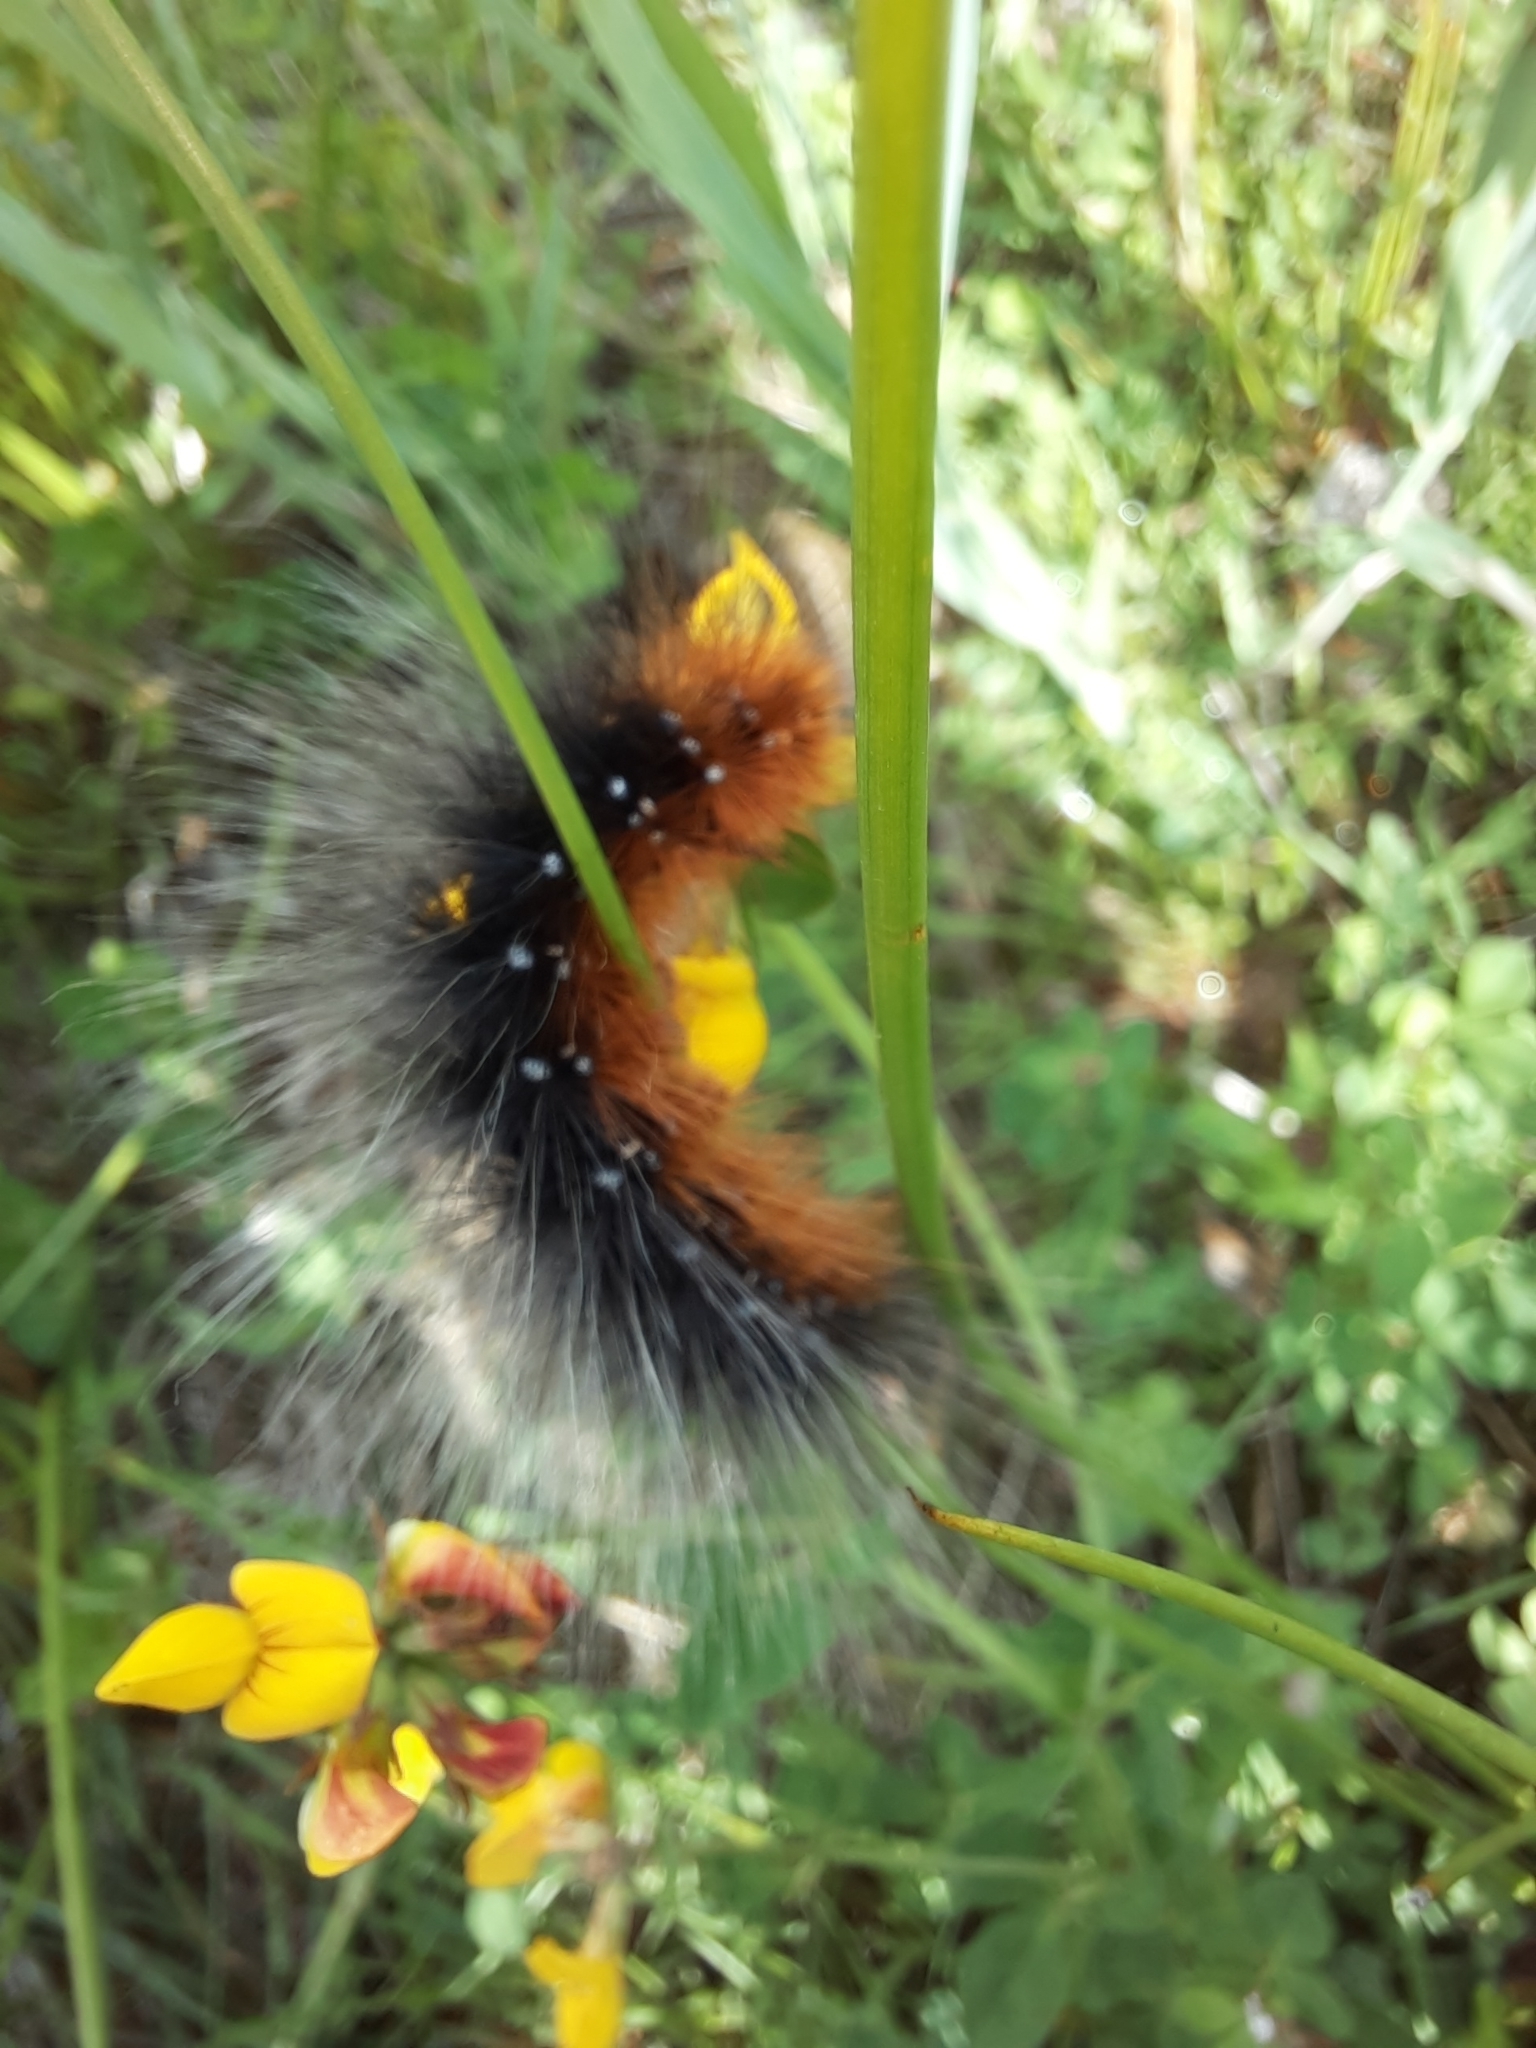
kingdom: Animalia
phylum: Arthropoda
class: Insecta
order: Lepidoptera
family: Erebidae
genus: Arctia
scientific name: Arctia caja
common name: Garden tiger
